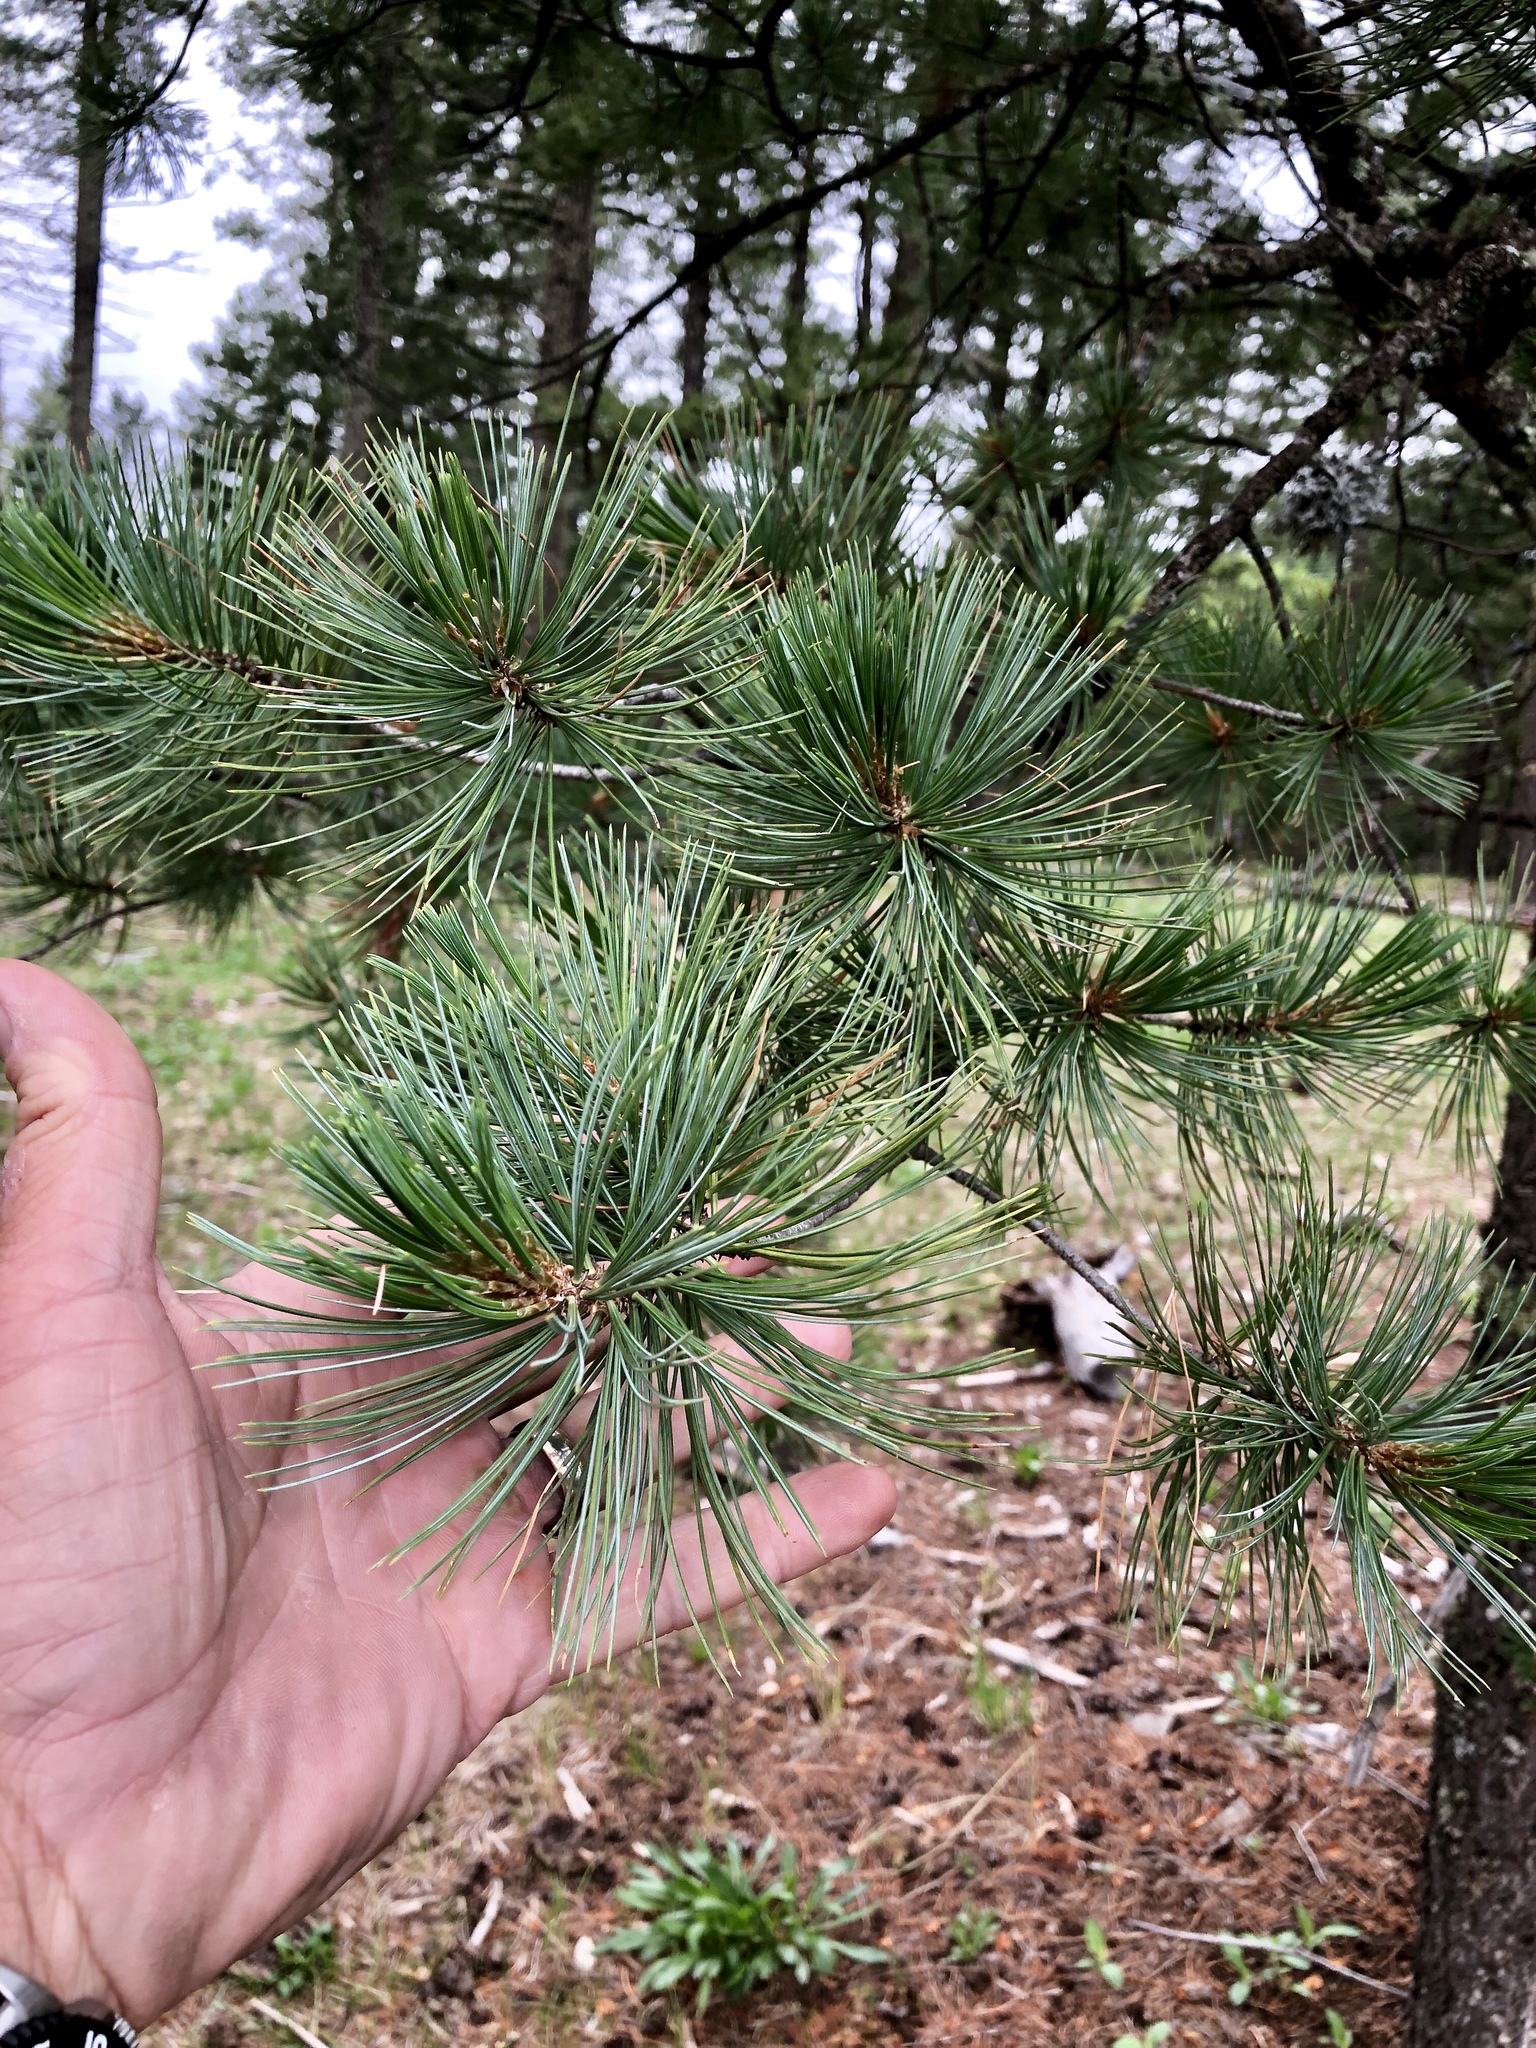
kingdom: Plantae
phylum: Tracheophyta
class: Pinopsida
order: Pinales
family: Pinaceae
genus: Pinus
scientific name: Pinus strobiformis
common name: Southwestern white pine
